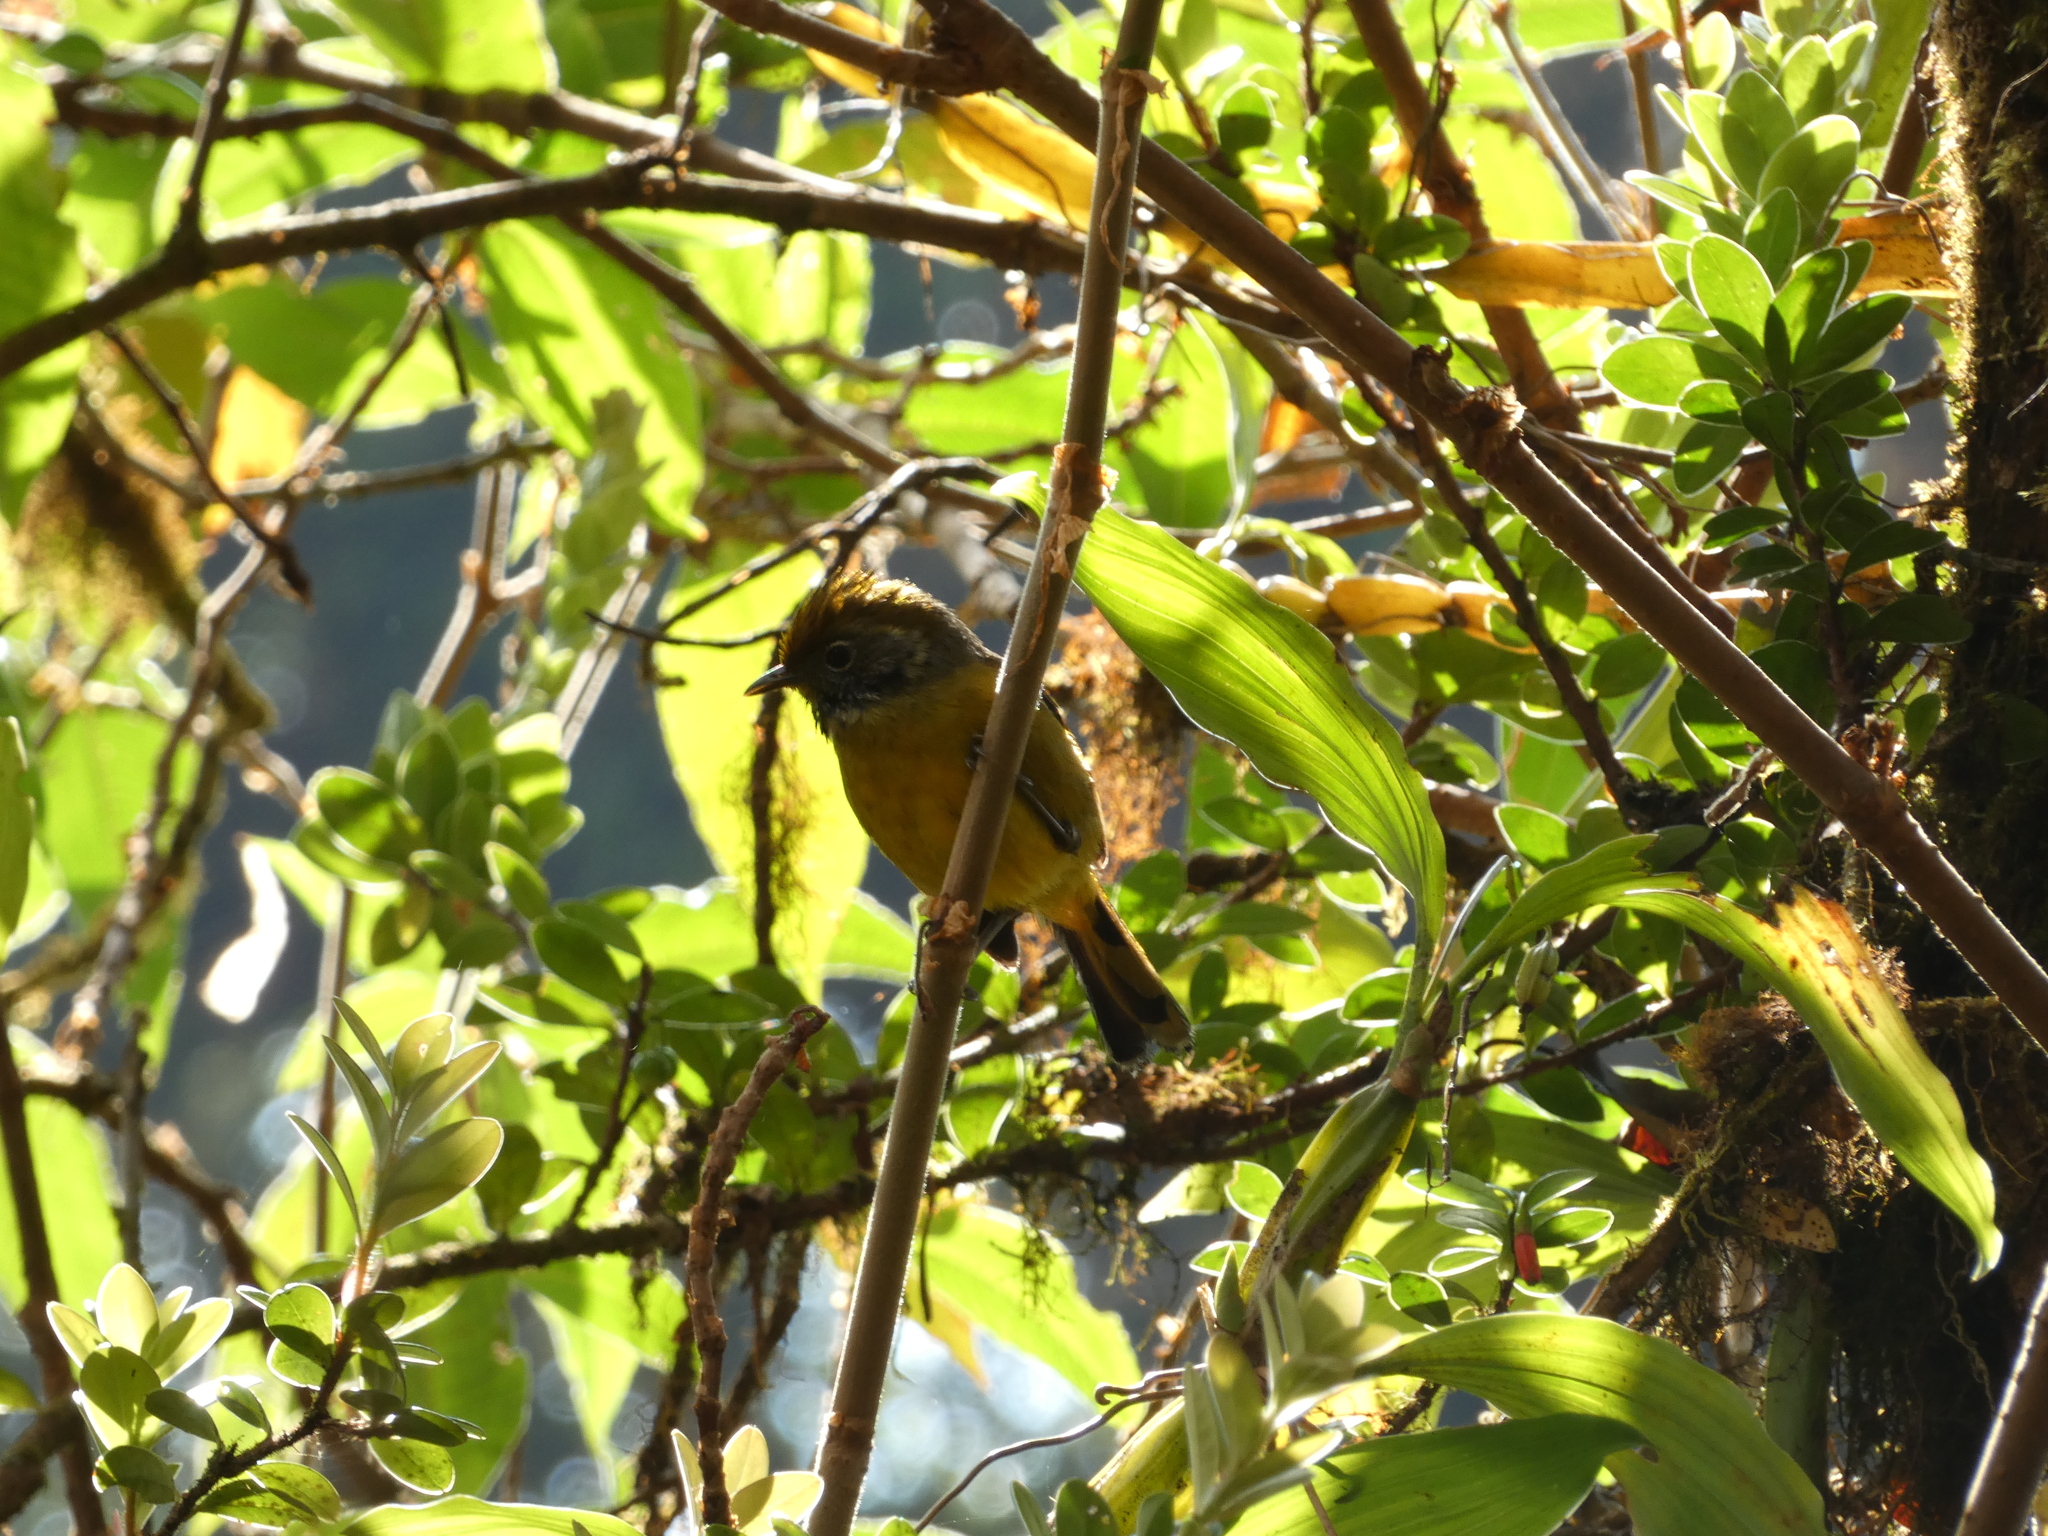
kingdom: Animalia
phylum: Chordata
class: Aves
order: Passeriformes
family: Leiothrichidae
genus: Minla
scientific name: Minla strigula
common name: Chestnut-tailed minla
